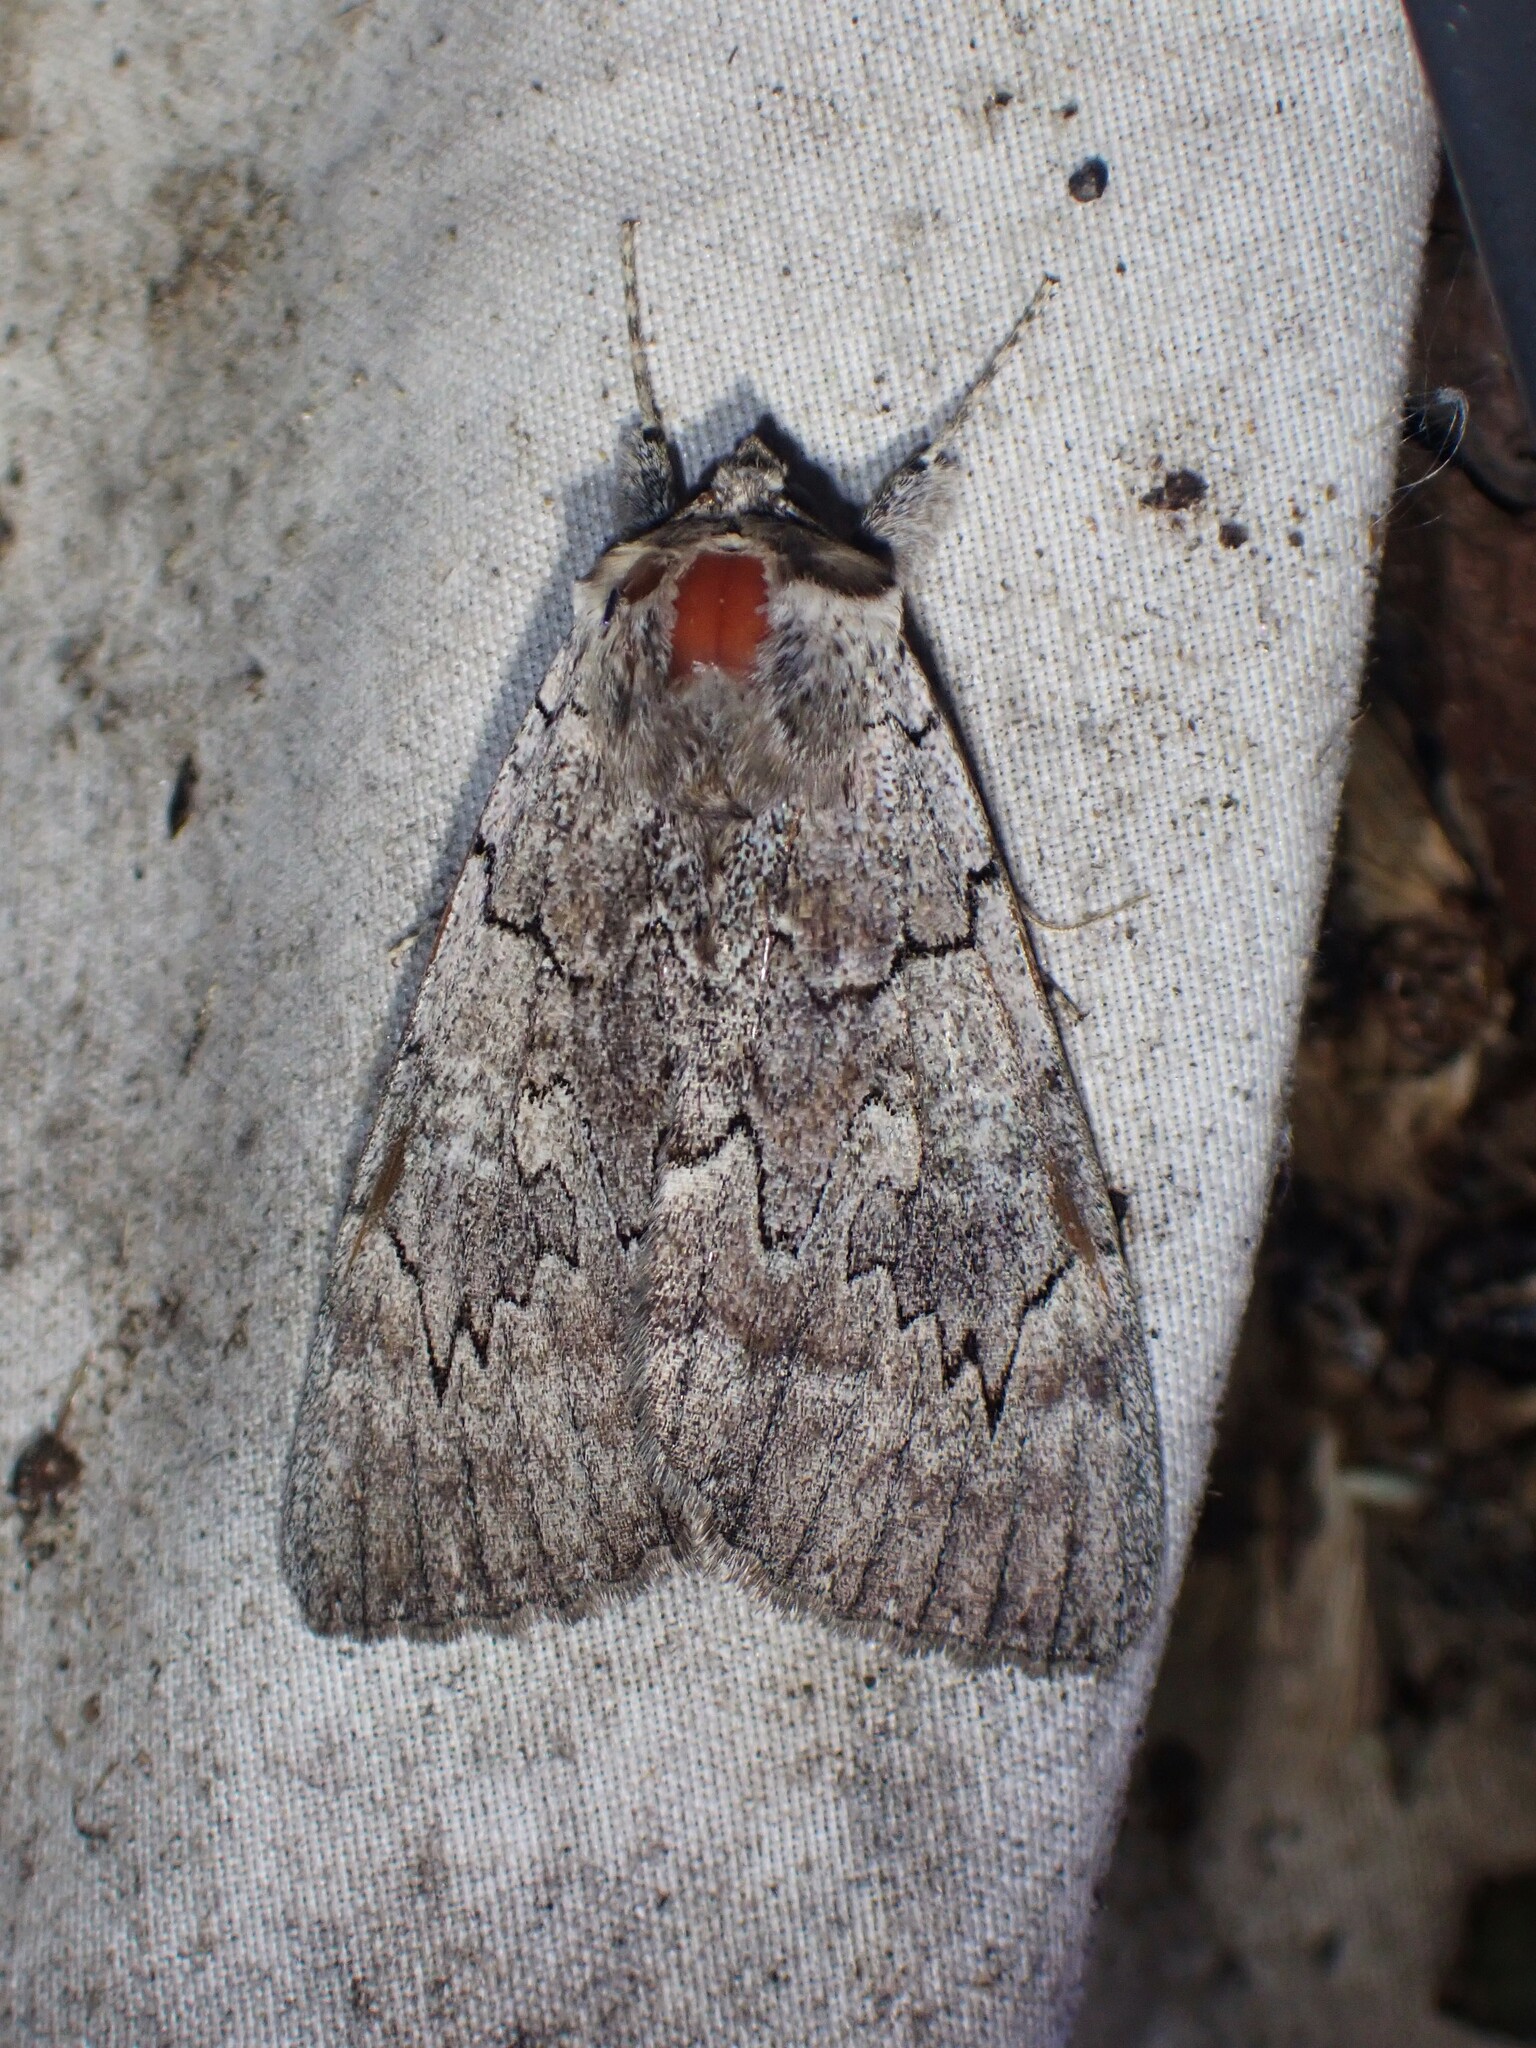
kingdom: Animalia
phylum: Arthropoda
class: Insecta
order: Lepidoptera
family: Erebidae
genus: Catocala
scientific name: Catocala concumbens
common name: Pink underwing
